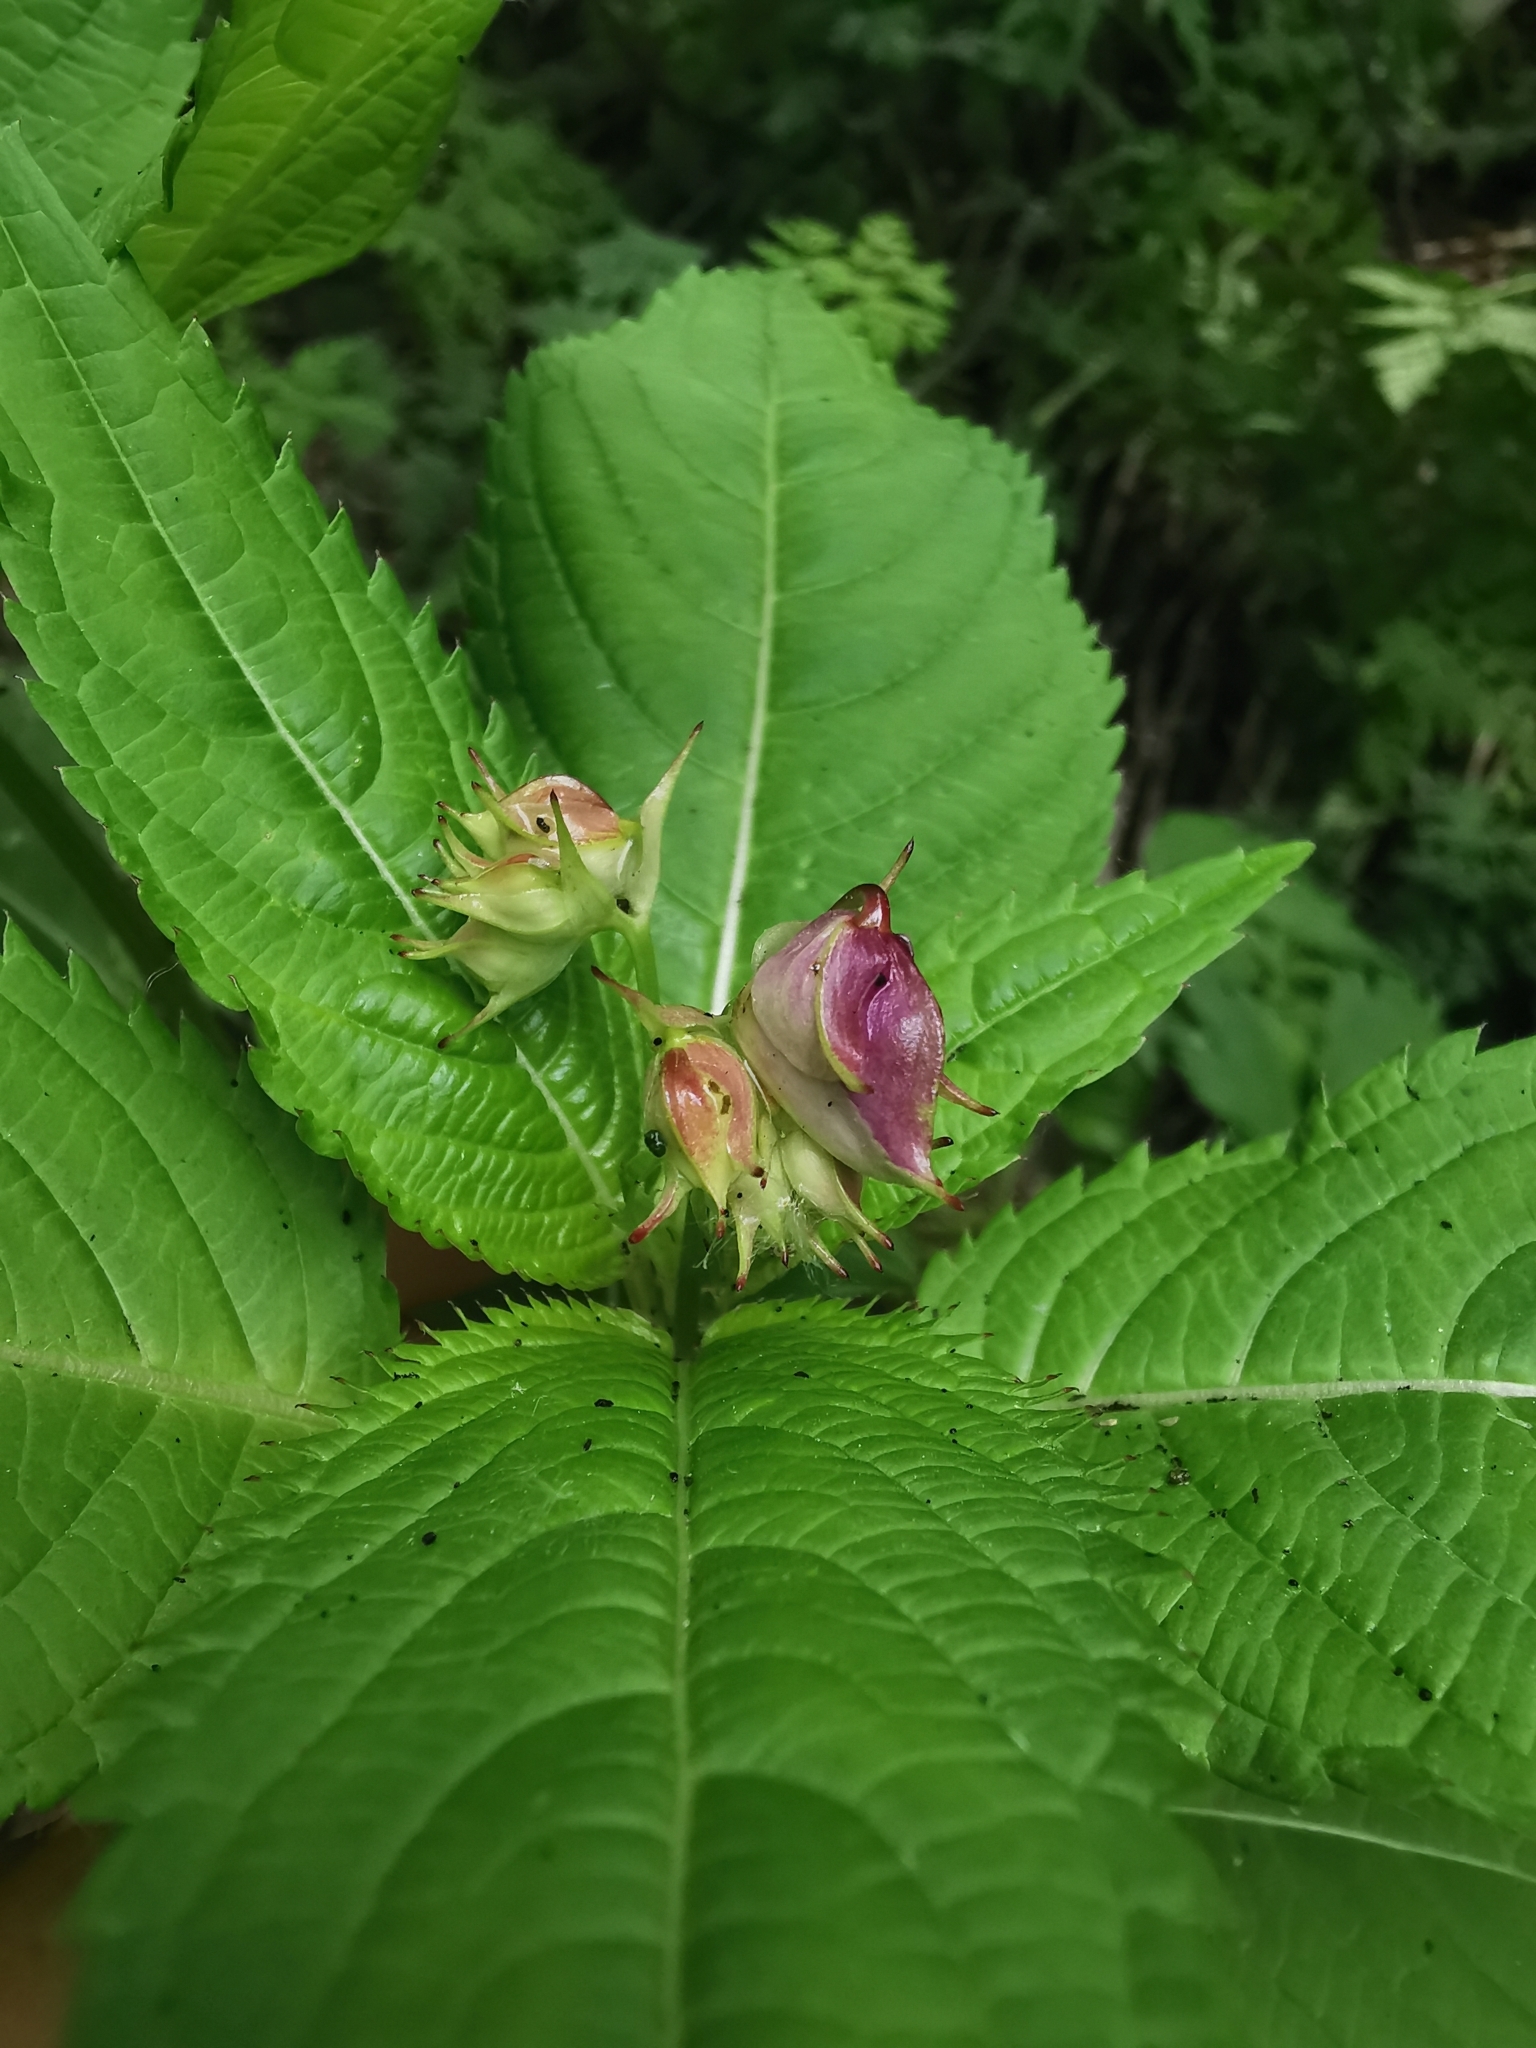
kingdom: Plantae
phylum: Tracheophyta
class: Magnoliopsida
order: Ericales
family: Balsaminaceae
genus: Impatiens
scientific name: Impatiens glandulifera
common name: Himalayan balsam
